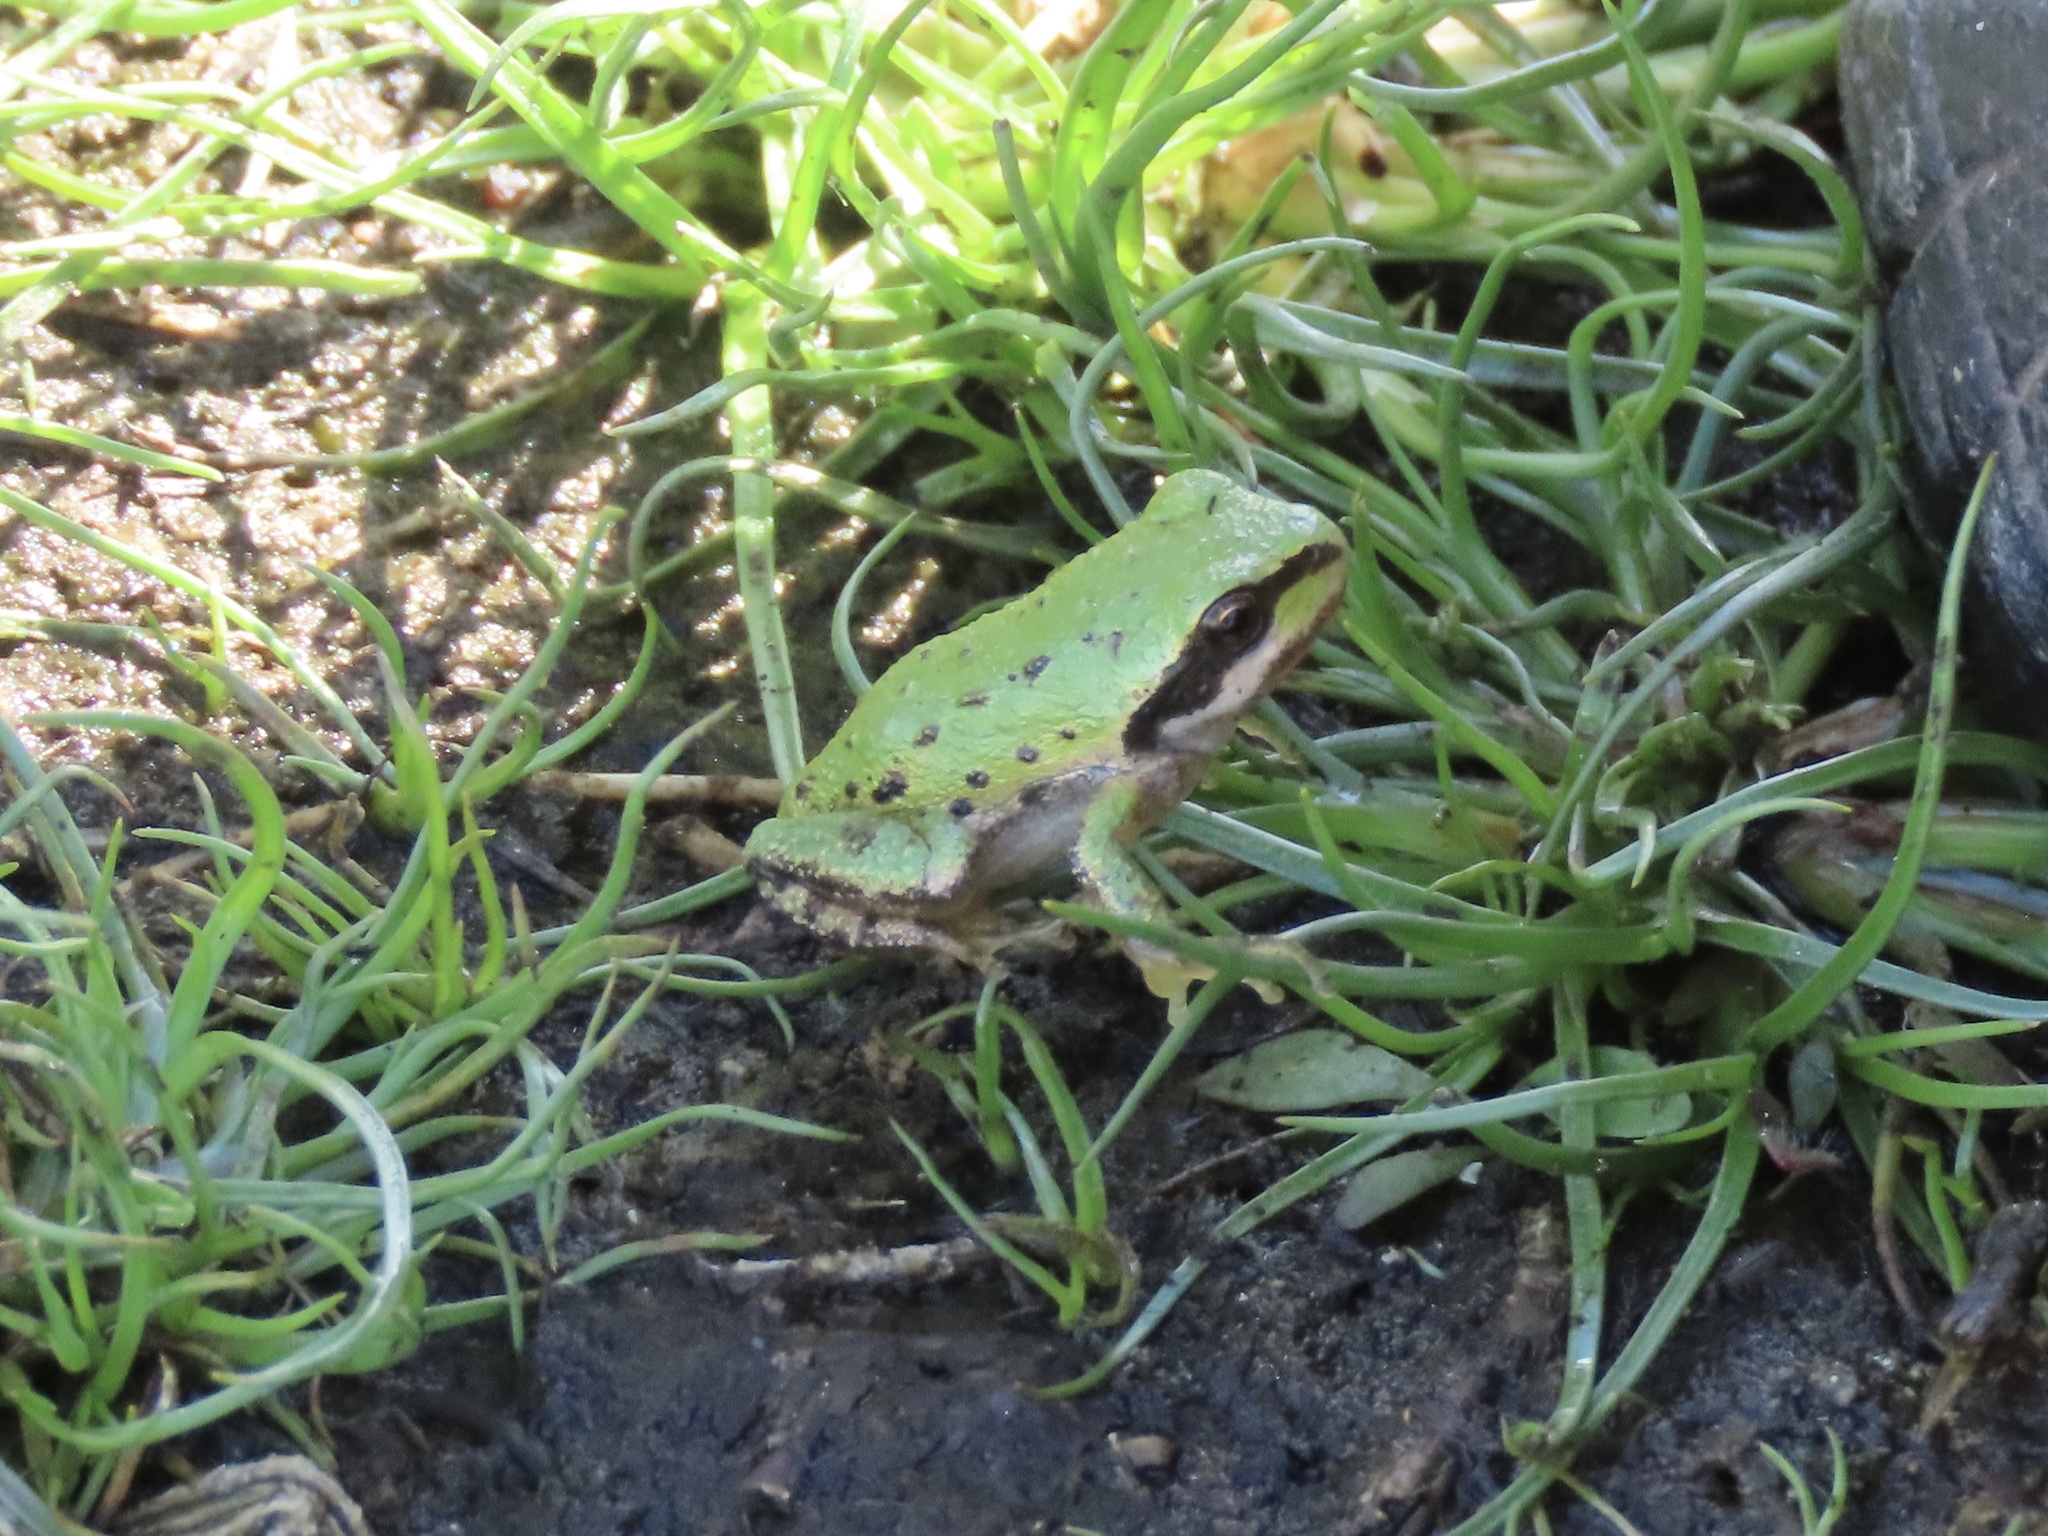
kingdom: Animalia
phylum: Chordata
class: Amphibia
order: Anura
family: Hylidae
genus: Pseudacris
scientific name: Pseudacris regilla
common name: Pacific chorus frog
